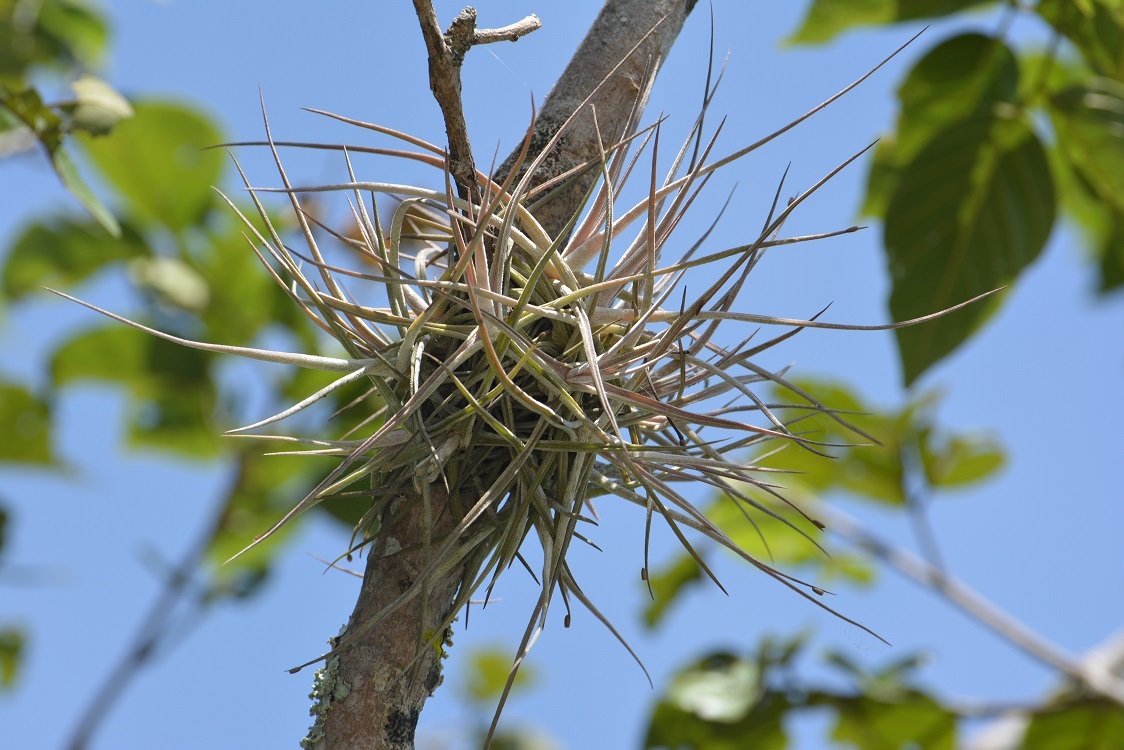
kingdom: Plantae
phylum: Tracheophyta
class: Liliopsida
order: Poales
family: Bromeliaceae
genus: Tillandsia
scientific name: Tillandsia schiedeana
